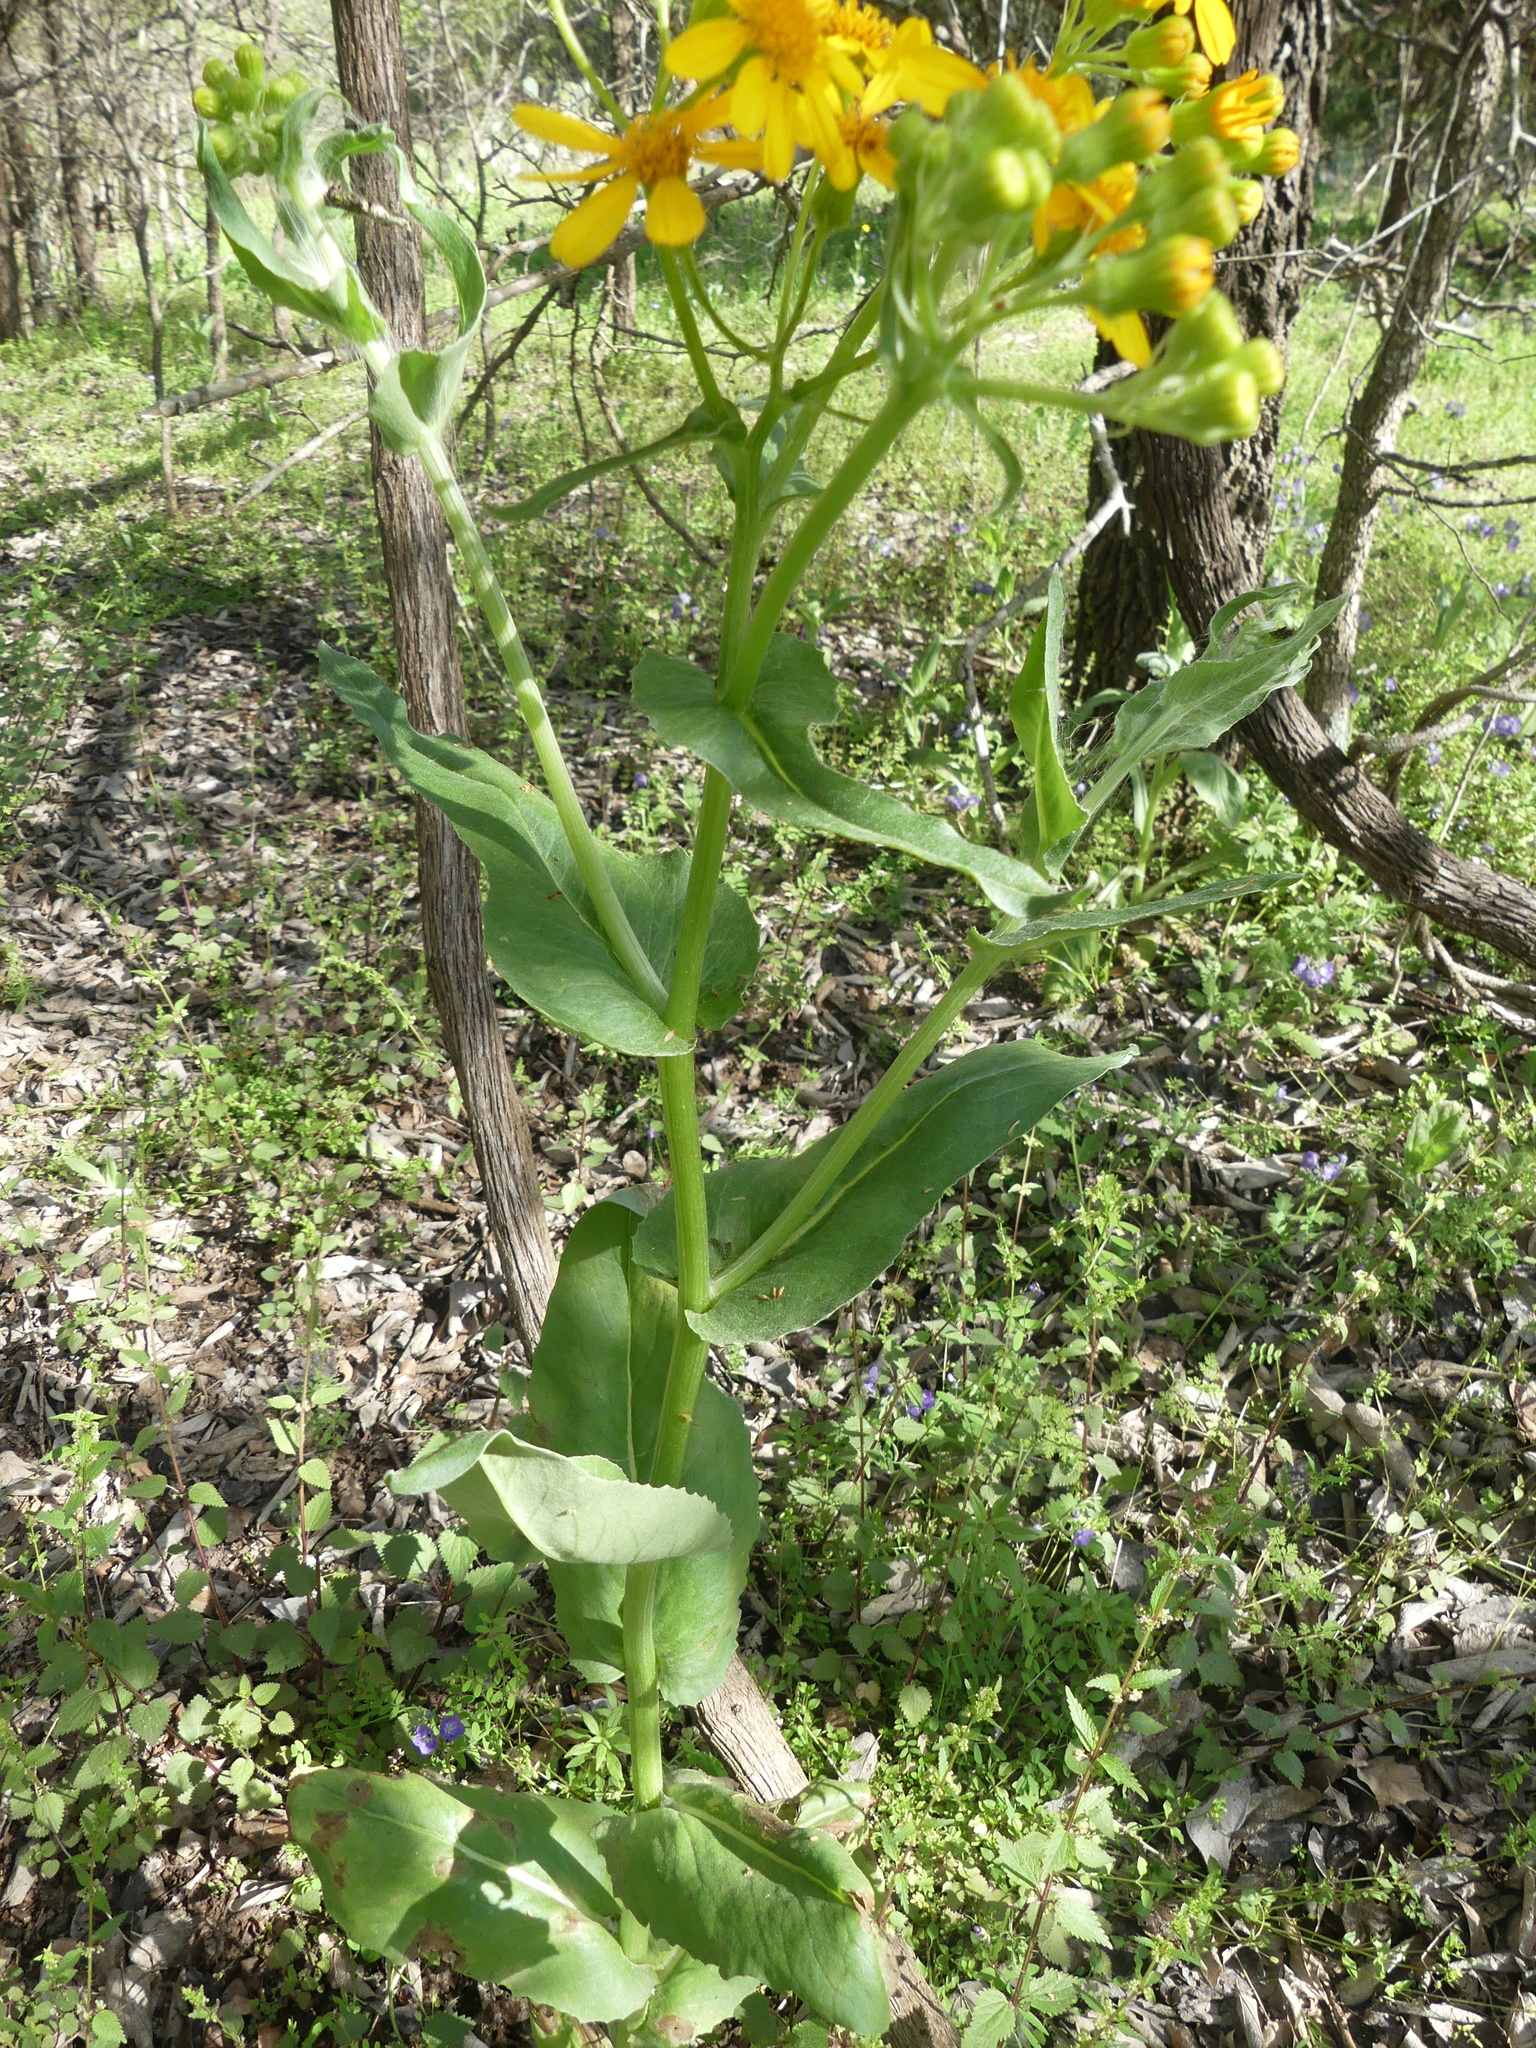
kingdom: Plantae
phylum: Tracheophyta
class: Magnoliopsida
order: Asterales
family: Asteraceae
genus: Senecio
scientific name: Senecio ampullaceus
